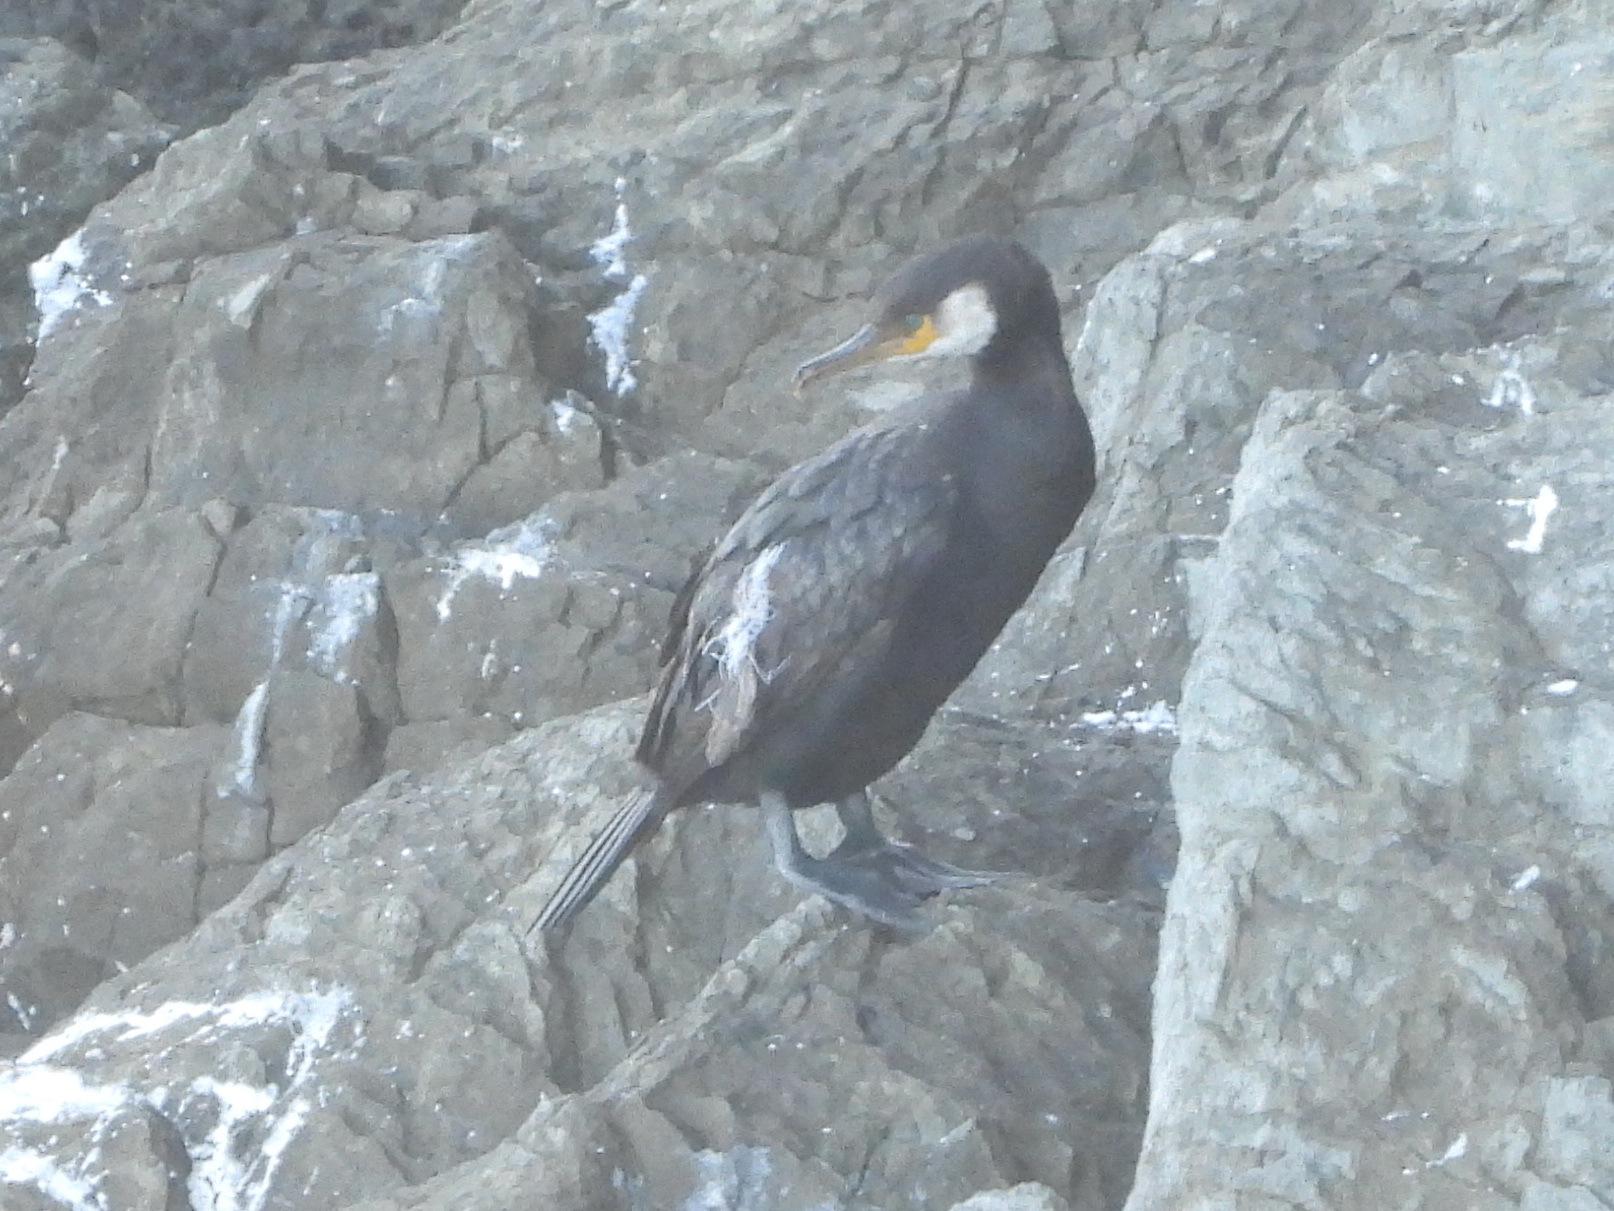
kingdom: Animalia
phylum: Chordata
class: Aves
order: Suliformes
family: Phalacrocoracidae
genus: Phalacrocorax
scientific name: Phalacrocorax carbo
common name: Great cormorant
